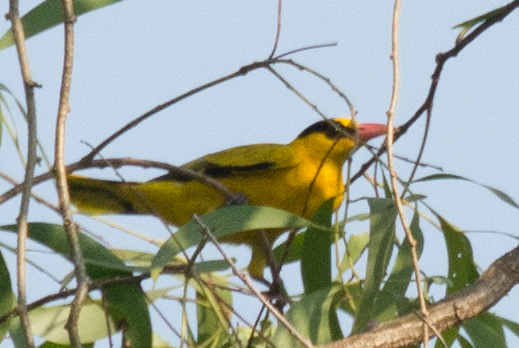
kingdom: Animalia
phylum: Chordata
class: Aves
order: Passeriformes
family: Oriolidae
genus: Oriolus
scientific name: Oriolus chinensis
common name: Black-naped oriole
